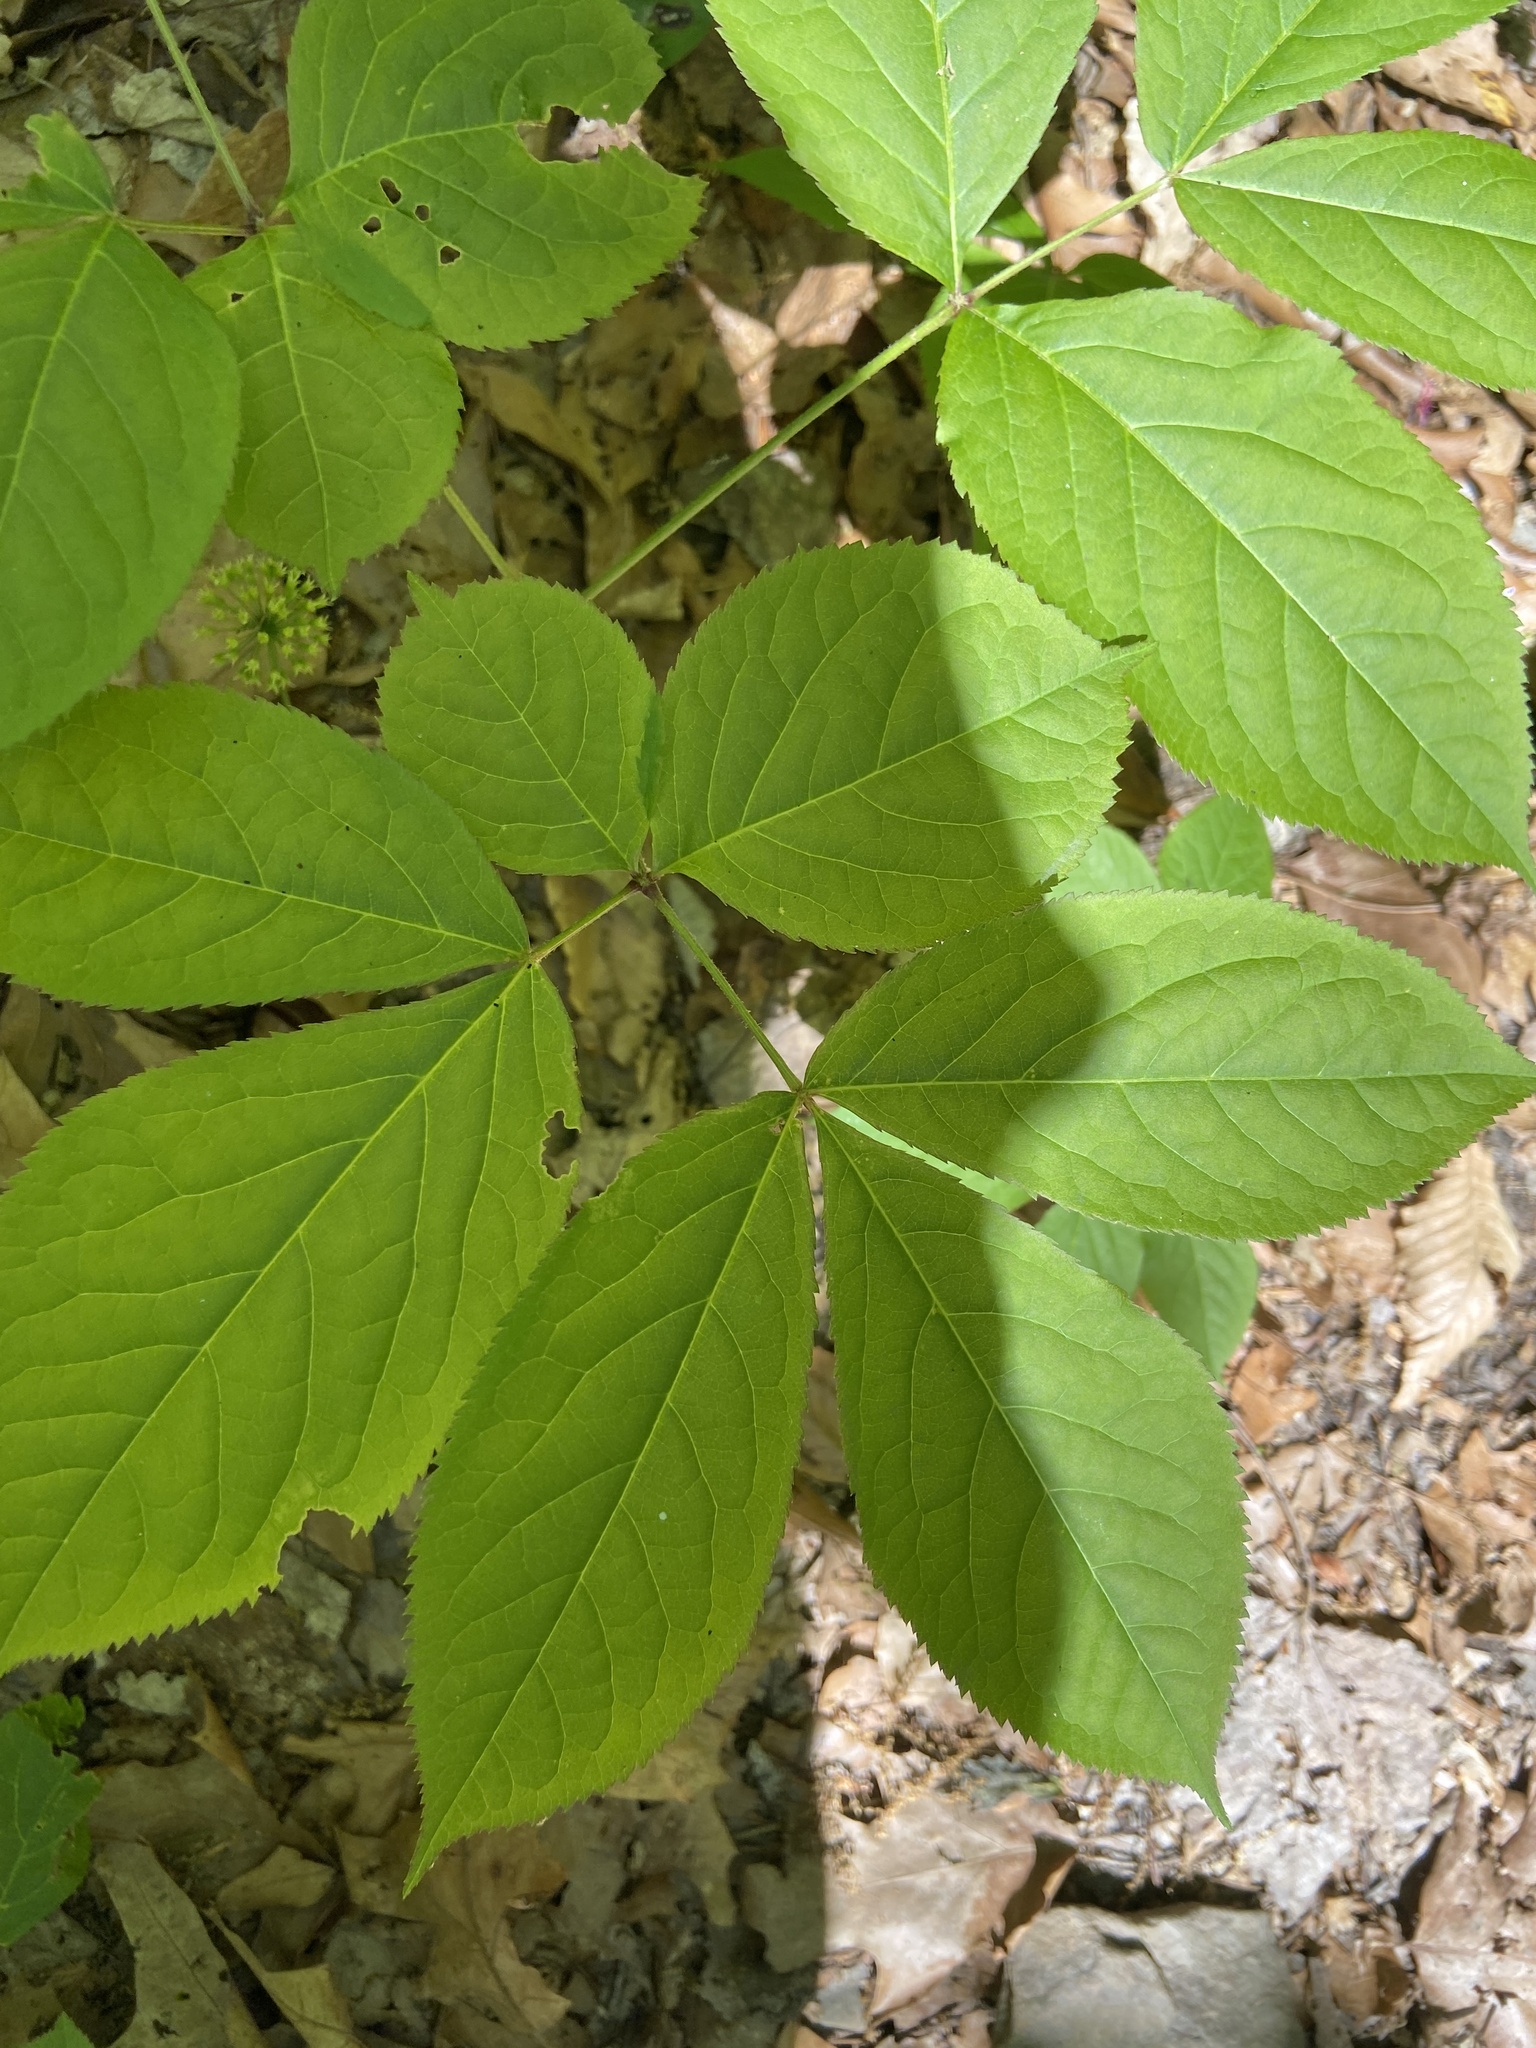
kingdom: Plantae
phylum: Tracheophyta
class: Magnoliopsida
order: Apiales
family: Araliaceae
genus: Aralia
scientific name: Aralia nudicaulis
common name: Wild sarsaparilla
